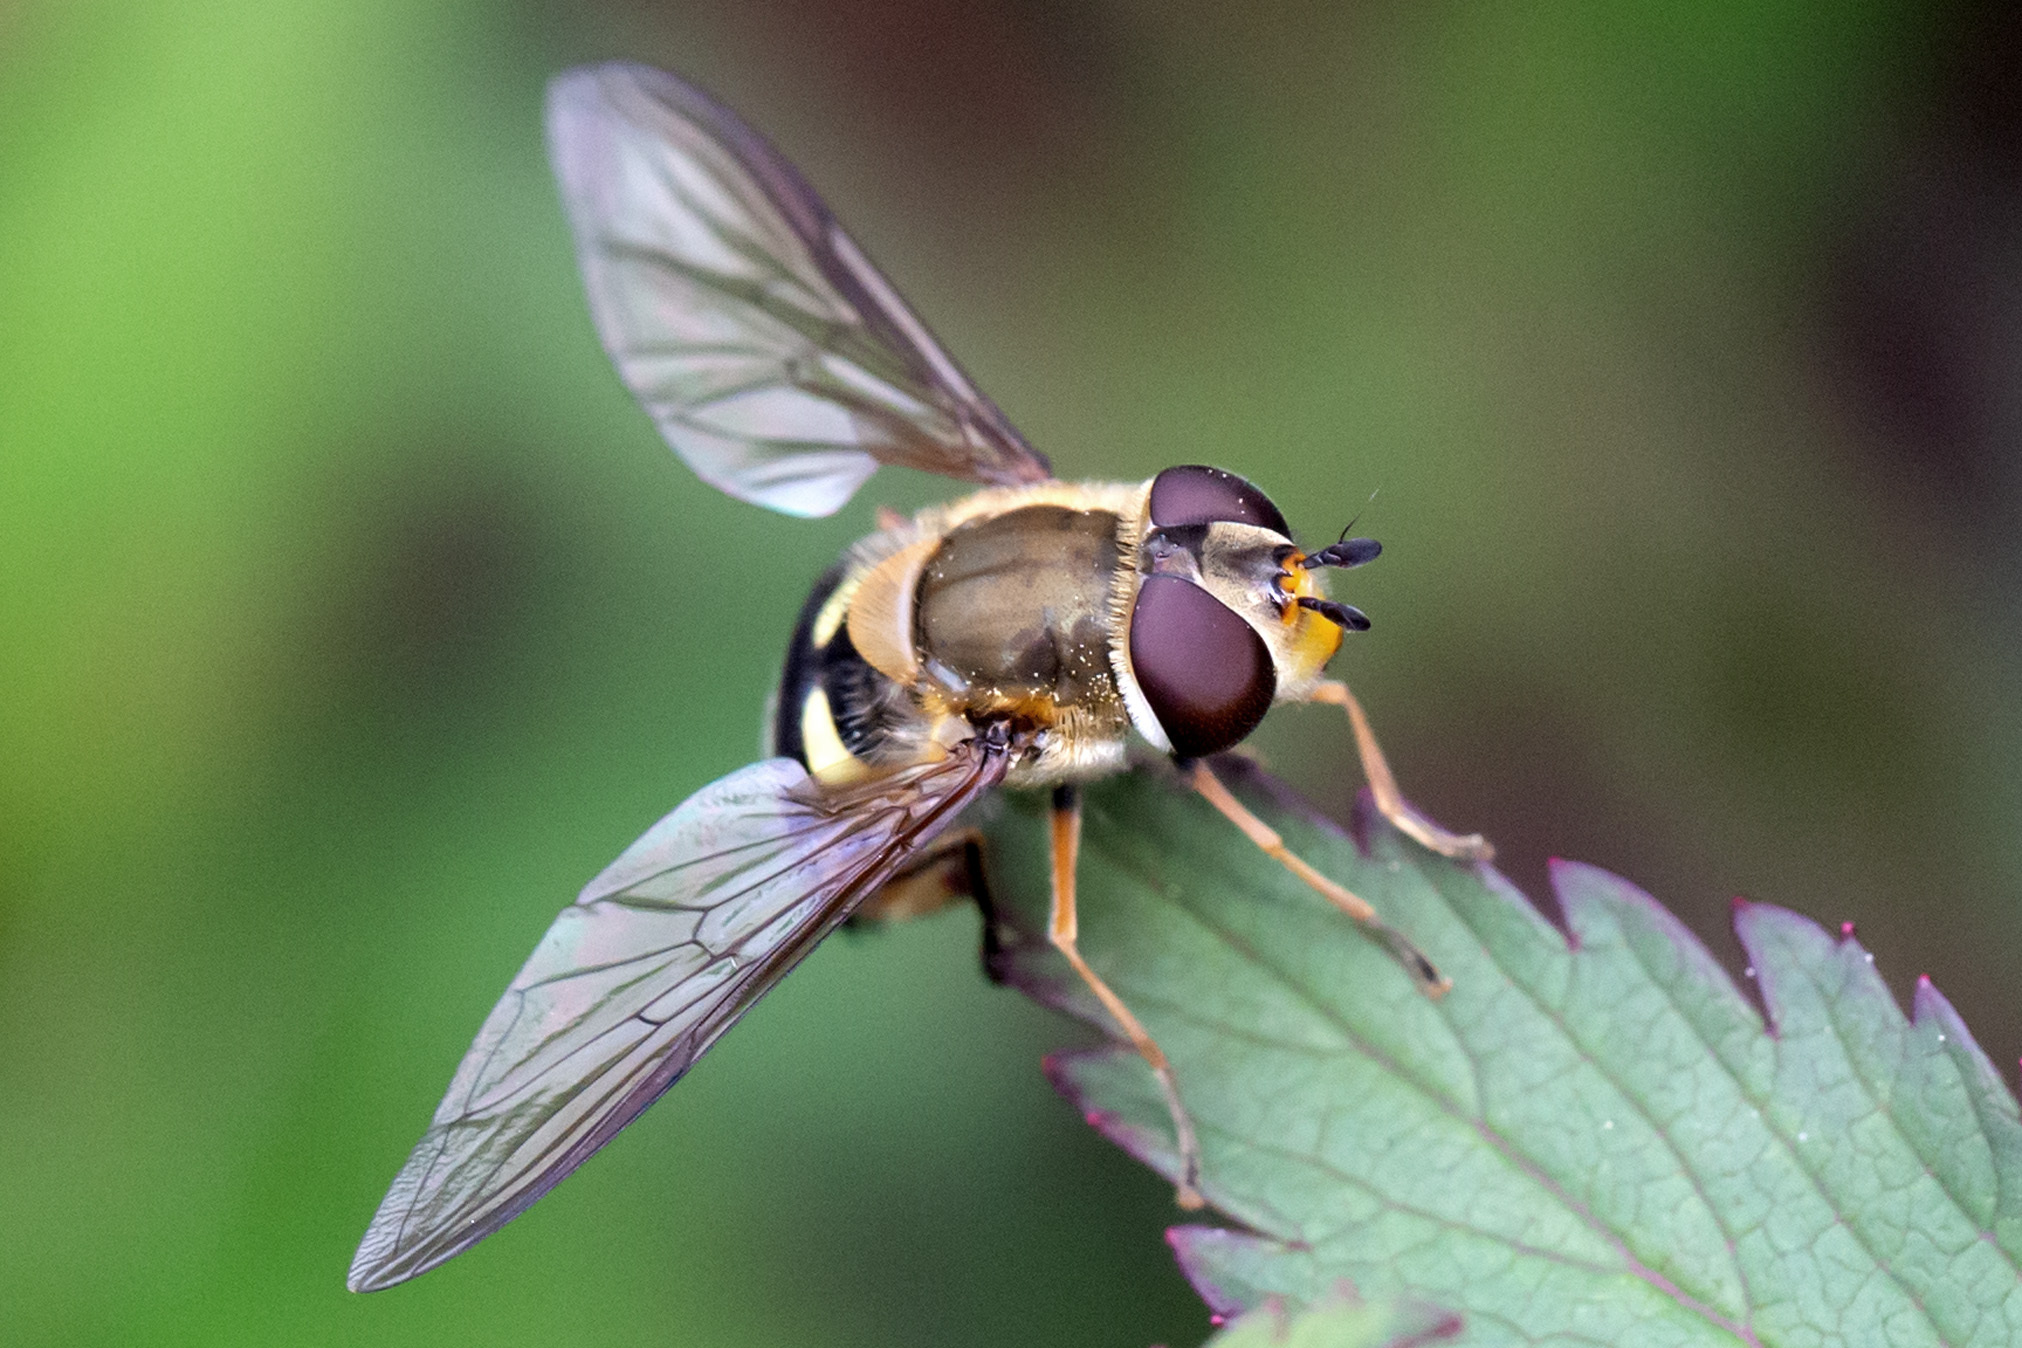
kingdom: Animalia
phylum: Arthropoda
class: Insecta
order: Diptera
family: Syrphidae
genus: Syrphus
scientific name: Syrphus torvus
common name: Hairy-eyed flower fly
